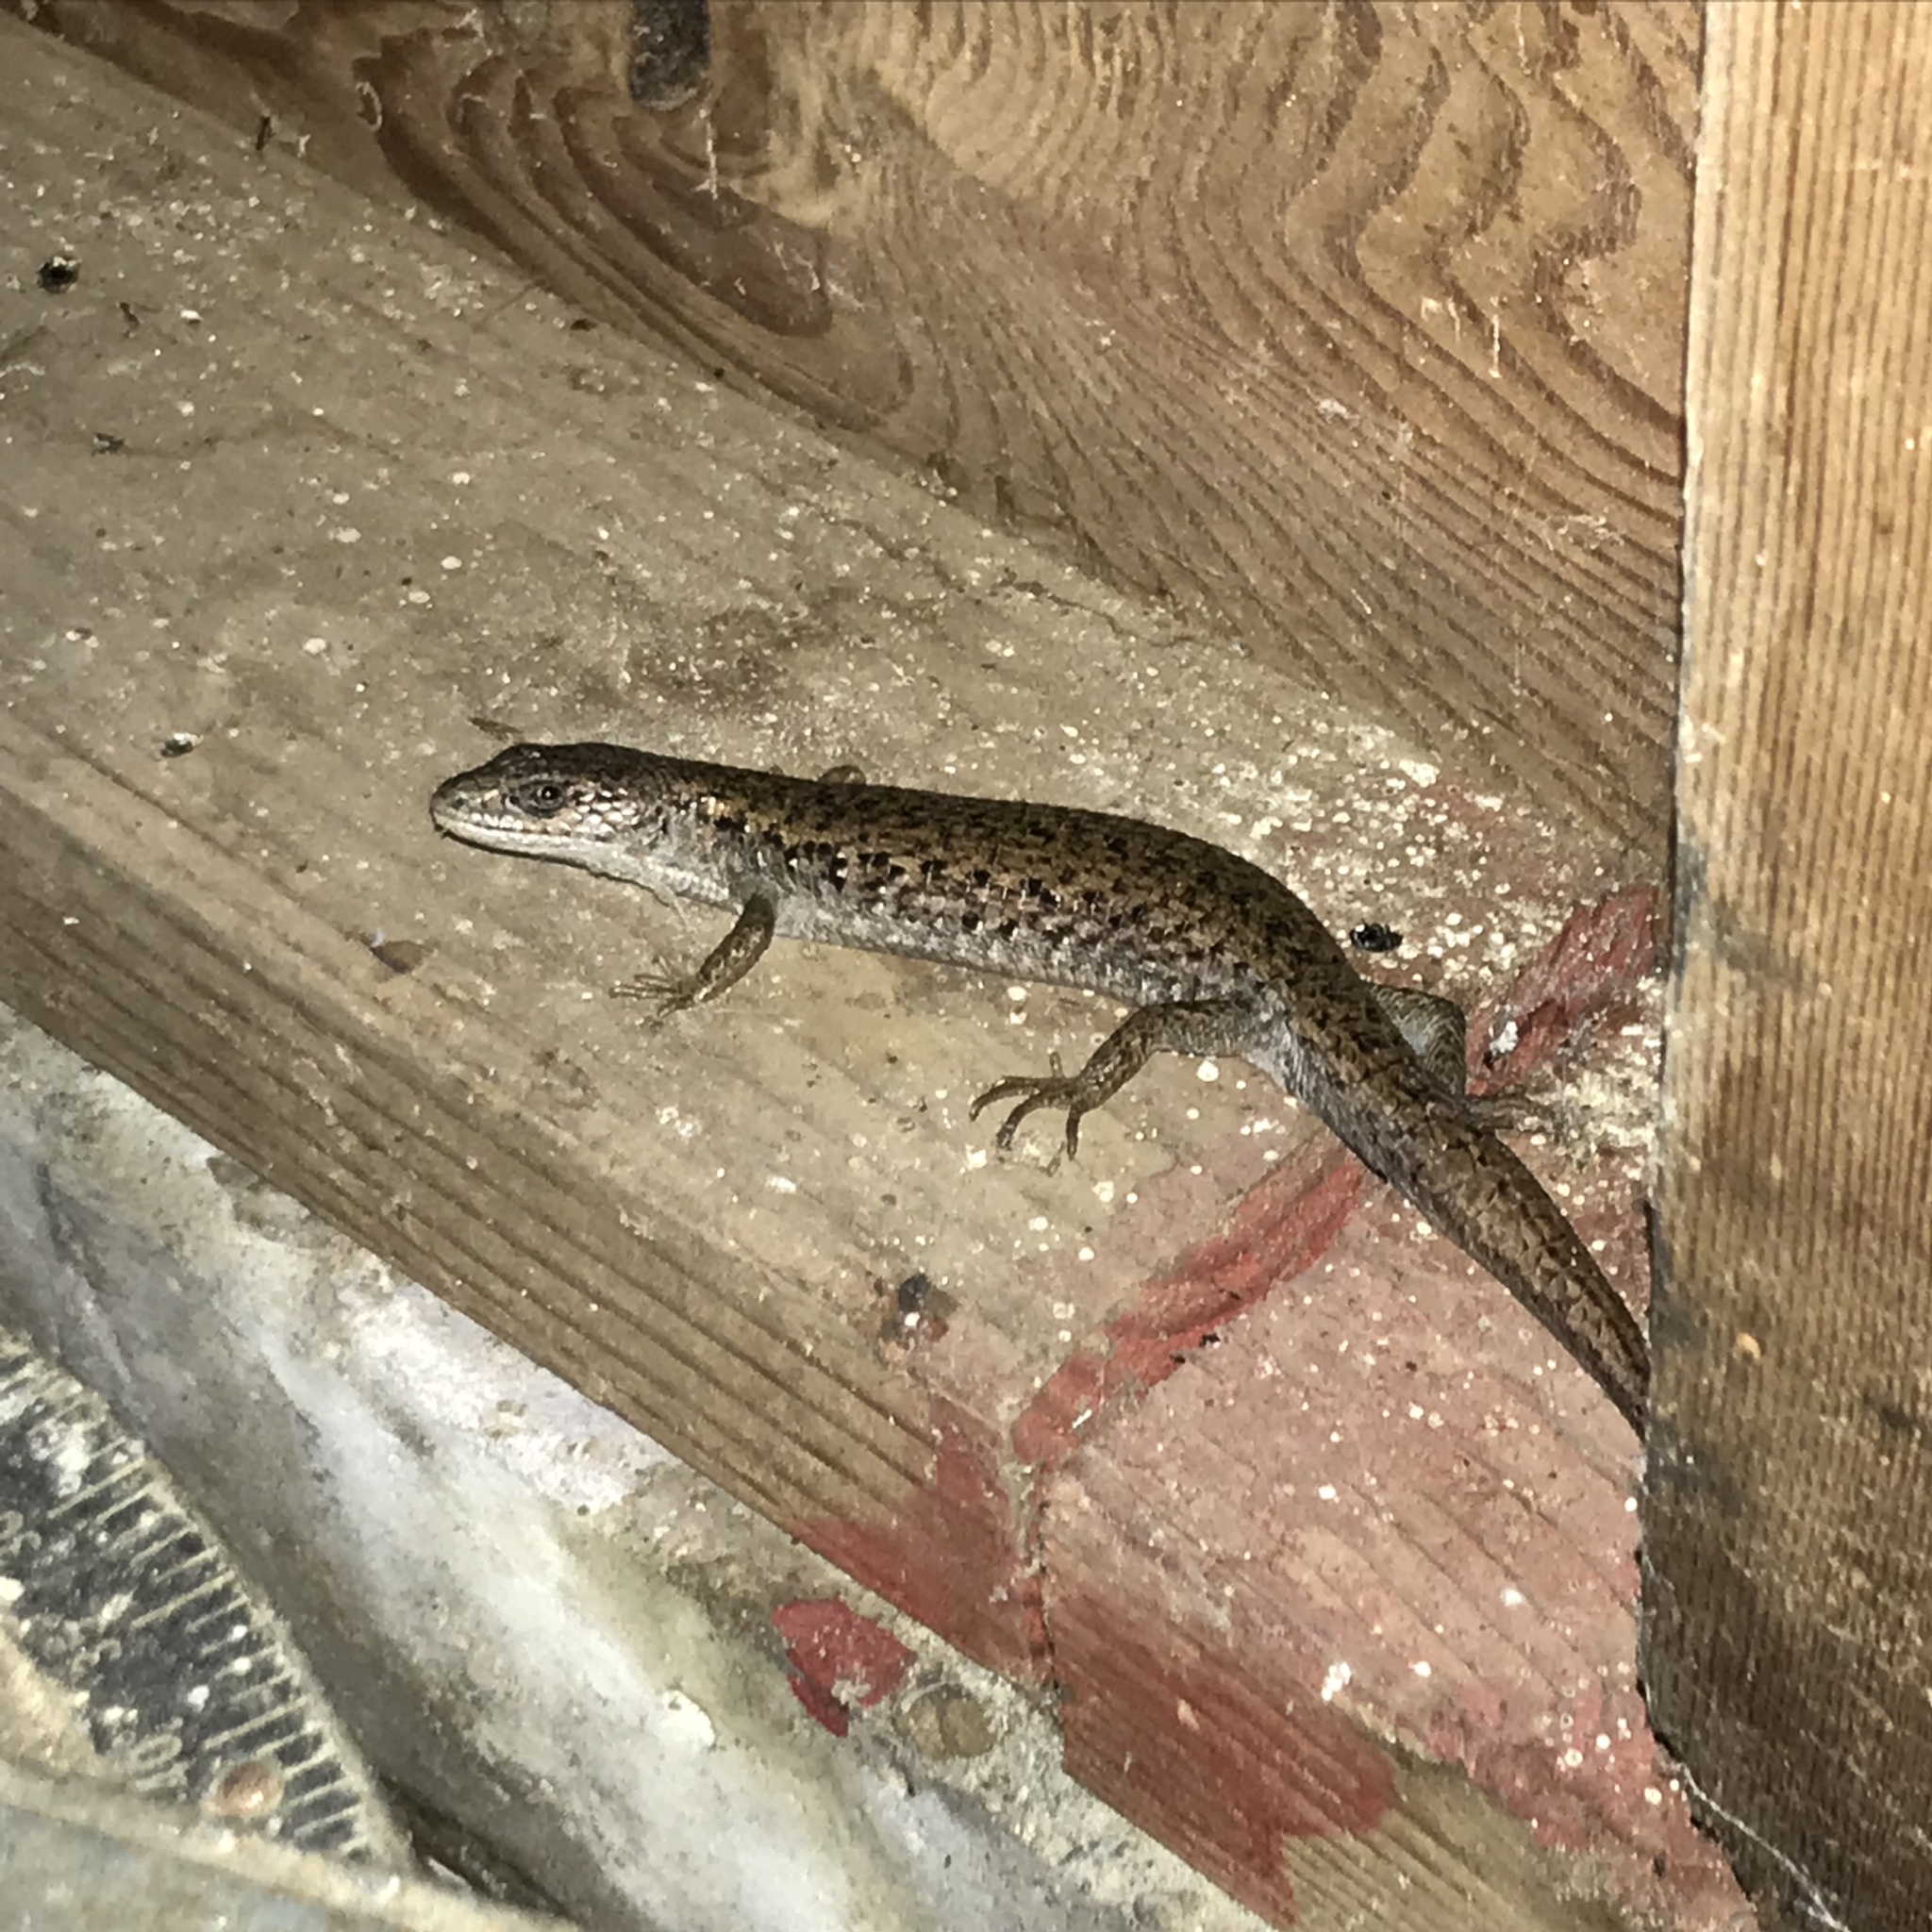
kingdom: Animalia
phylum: Chordata
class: Squamata
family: Anguidae
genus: Elgaria
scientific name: Elgaria coerulea
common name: Northern alligator lizard
